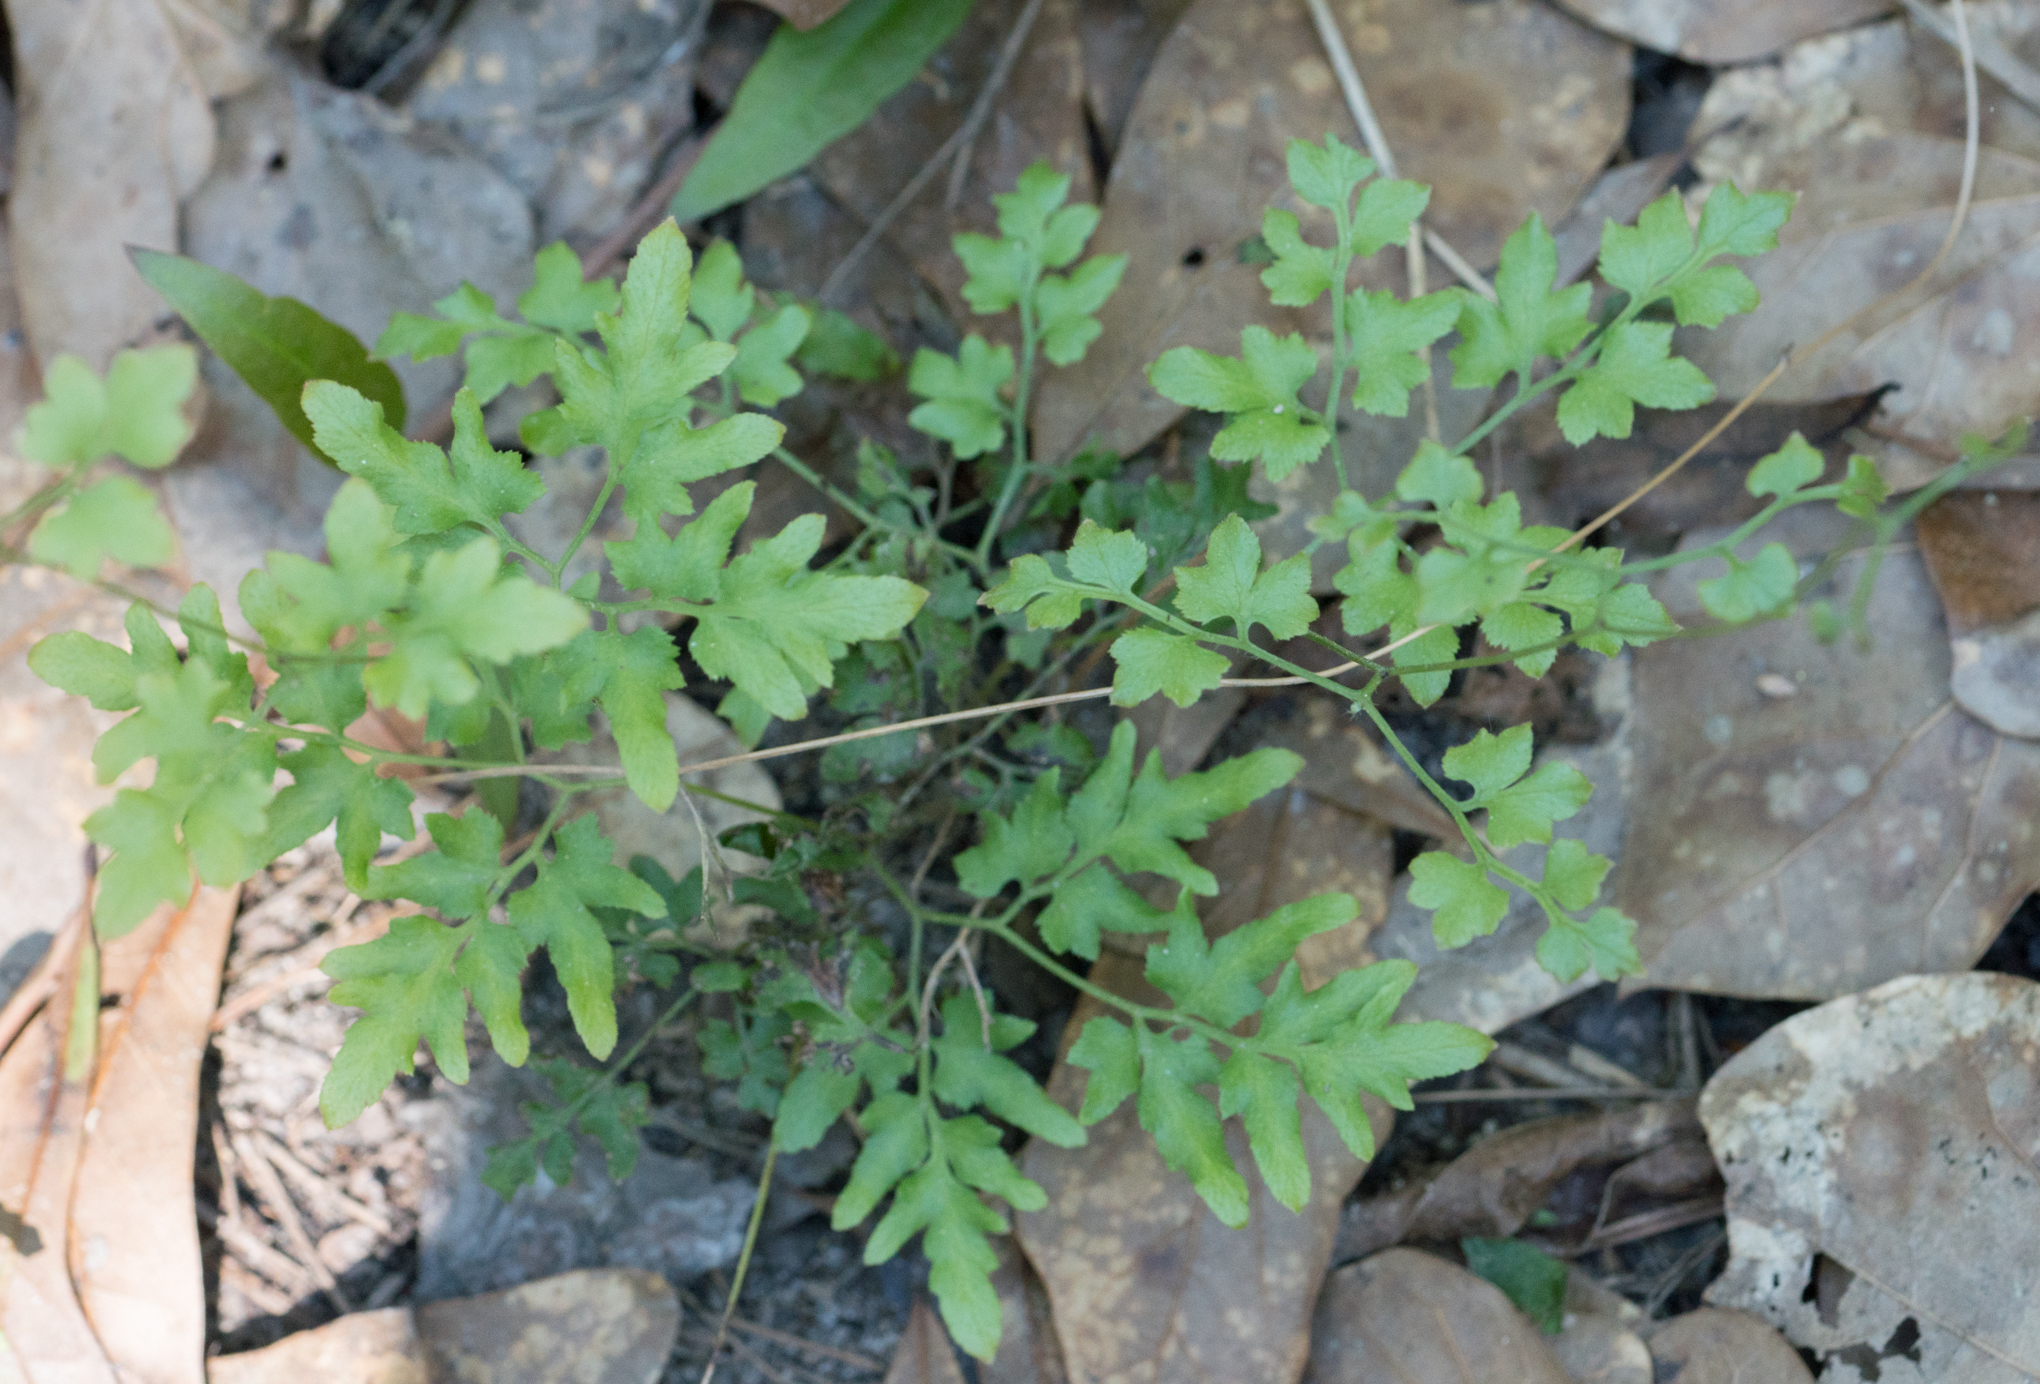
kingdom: Plantae
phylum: Tracheophyta
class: Polypodiopsida
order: Schizaeales
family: Lygodiaceae
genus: Lygodium
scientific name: Lygodium japonicum
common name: Japanese climbing fern
